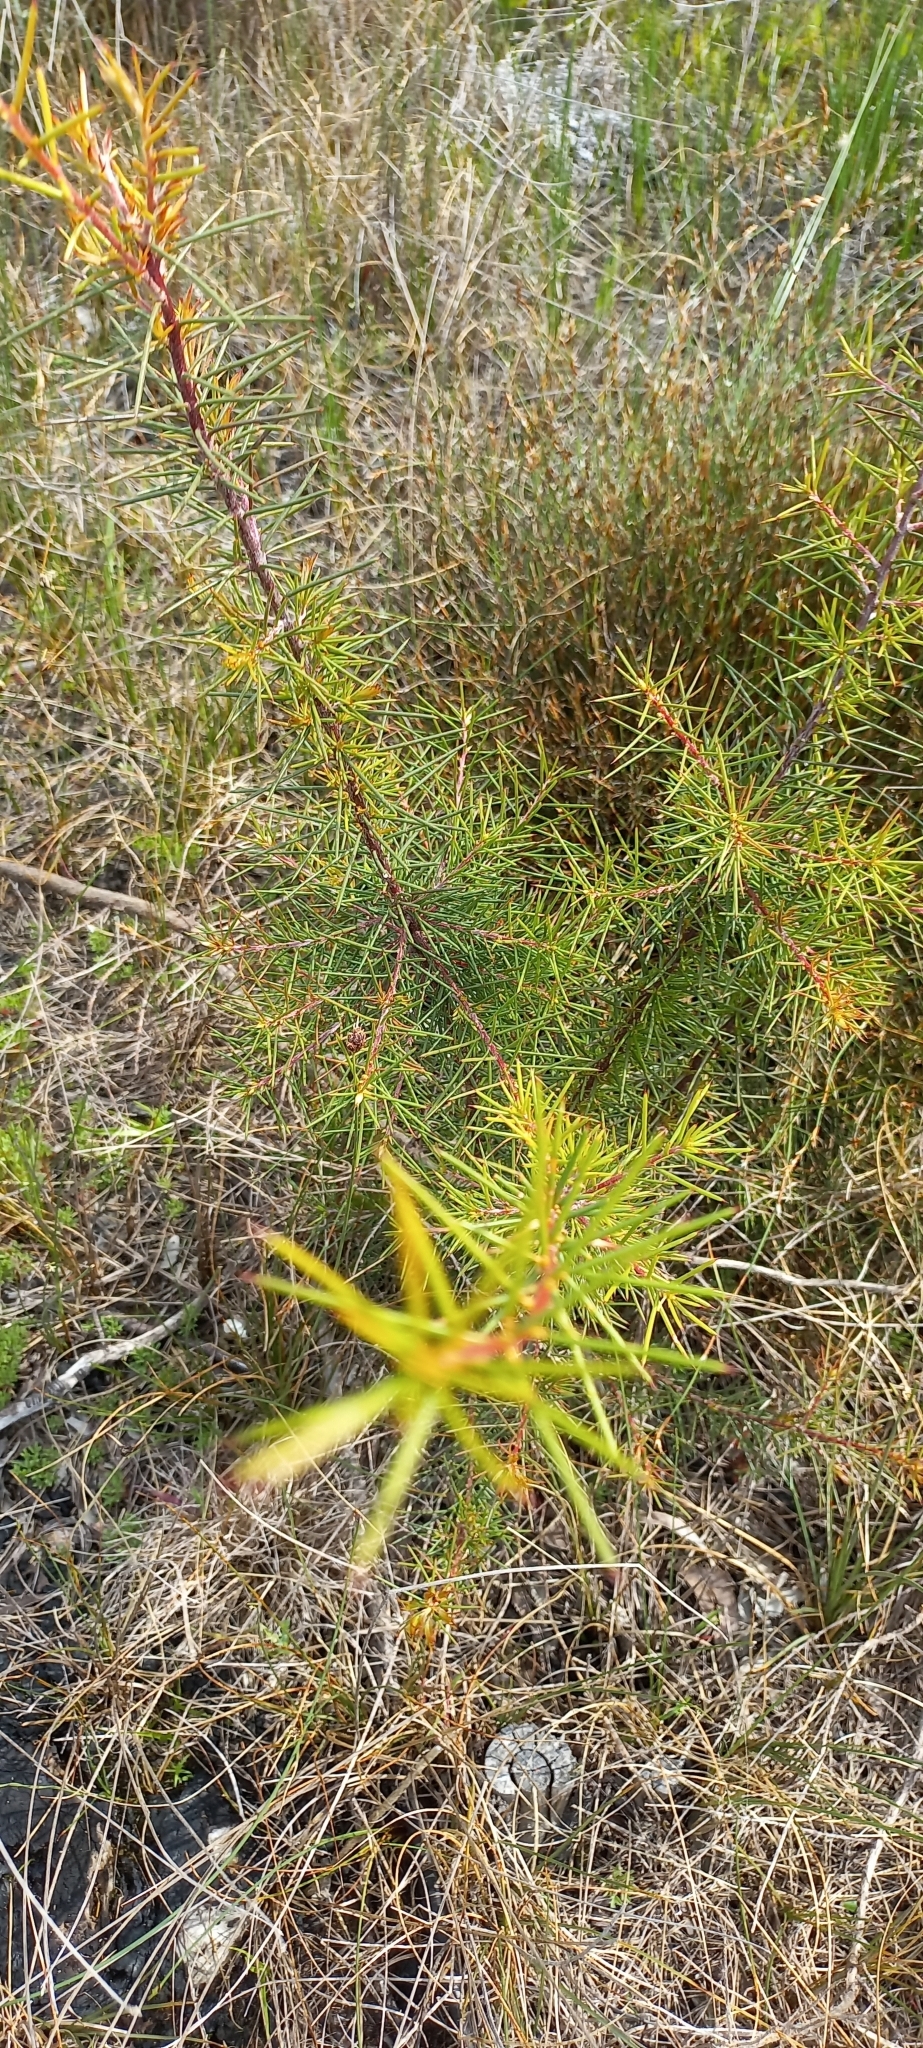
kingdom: Plantae
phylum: Tracheophyta
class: Magnoliopsida
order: Proteales
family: Proteaceae
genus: Hakea
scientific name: Hakea sericea
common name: Needle bush
